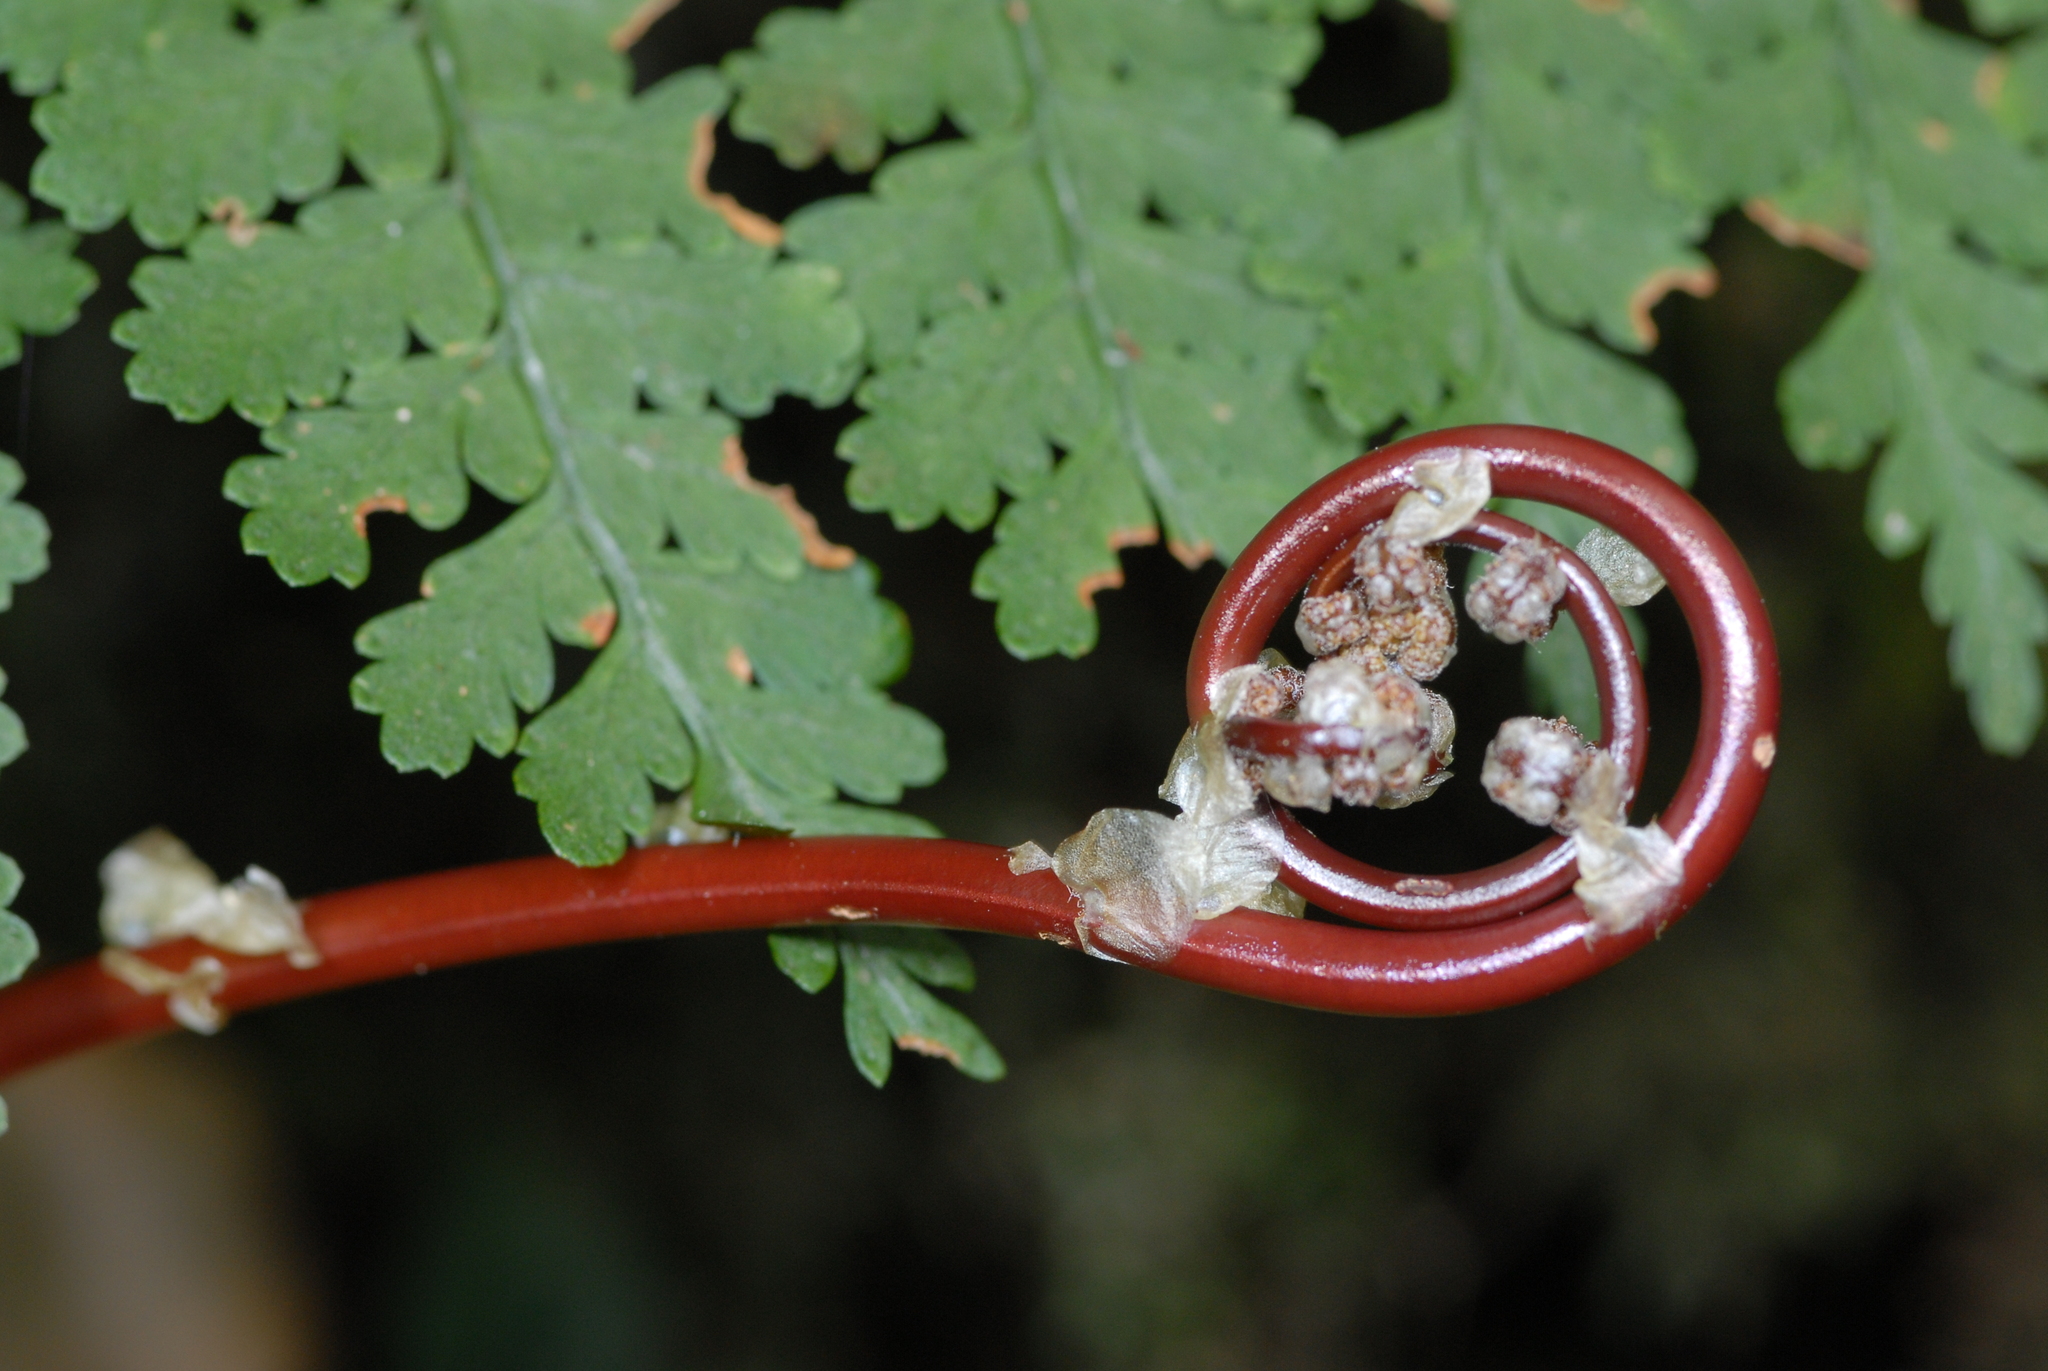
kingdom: Plantae
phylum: Tracheophyta
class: Polypodiopsida
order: Polypodiales
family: Dryopteridaceae
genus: Dryopteris
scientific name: Dryopteris paleolata
